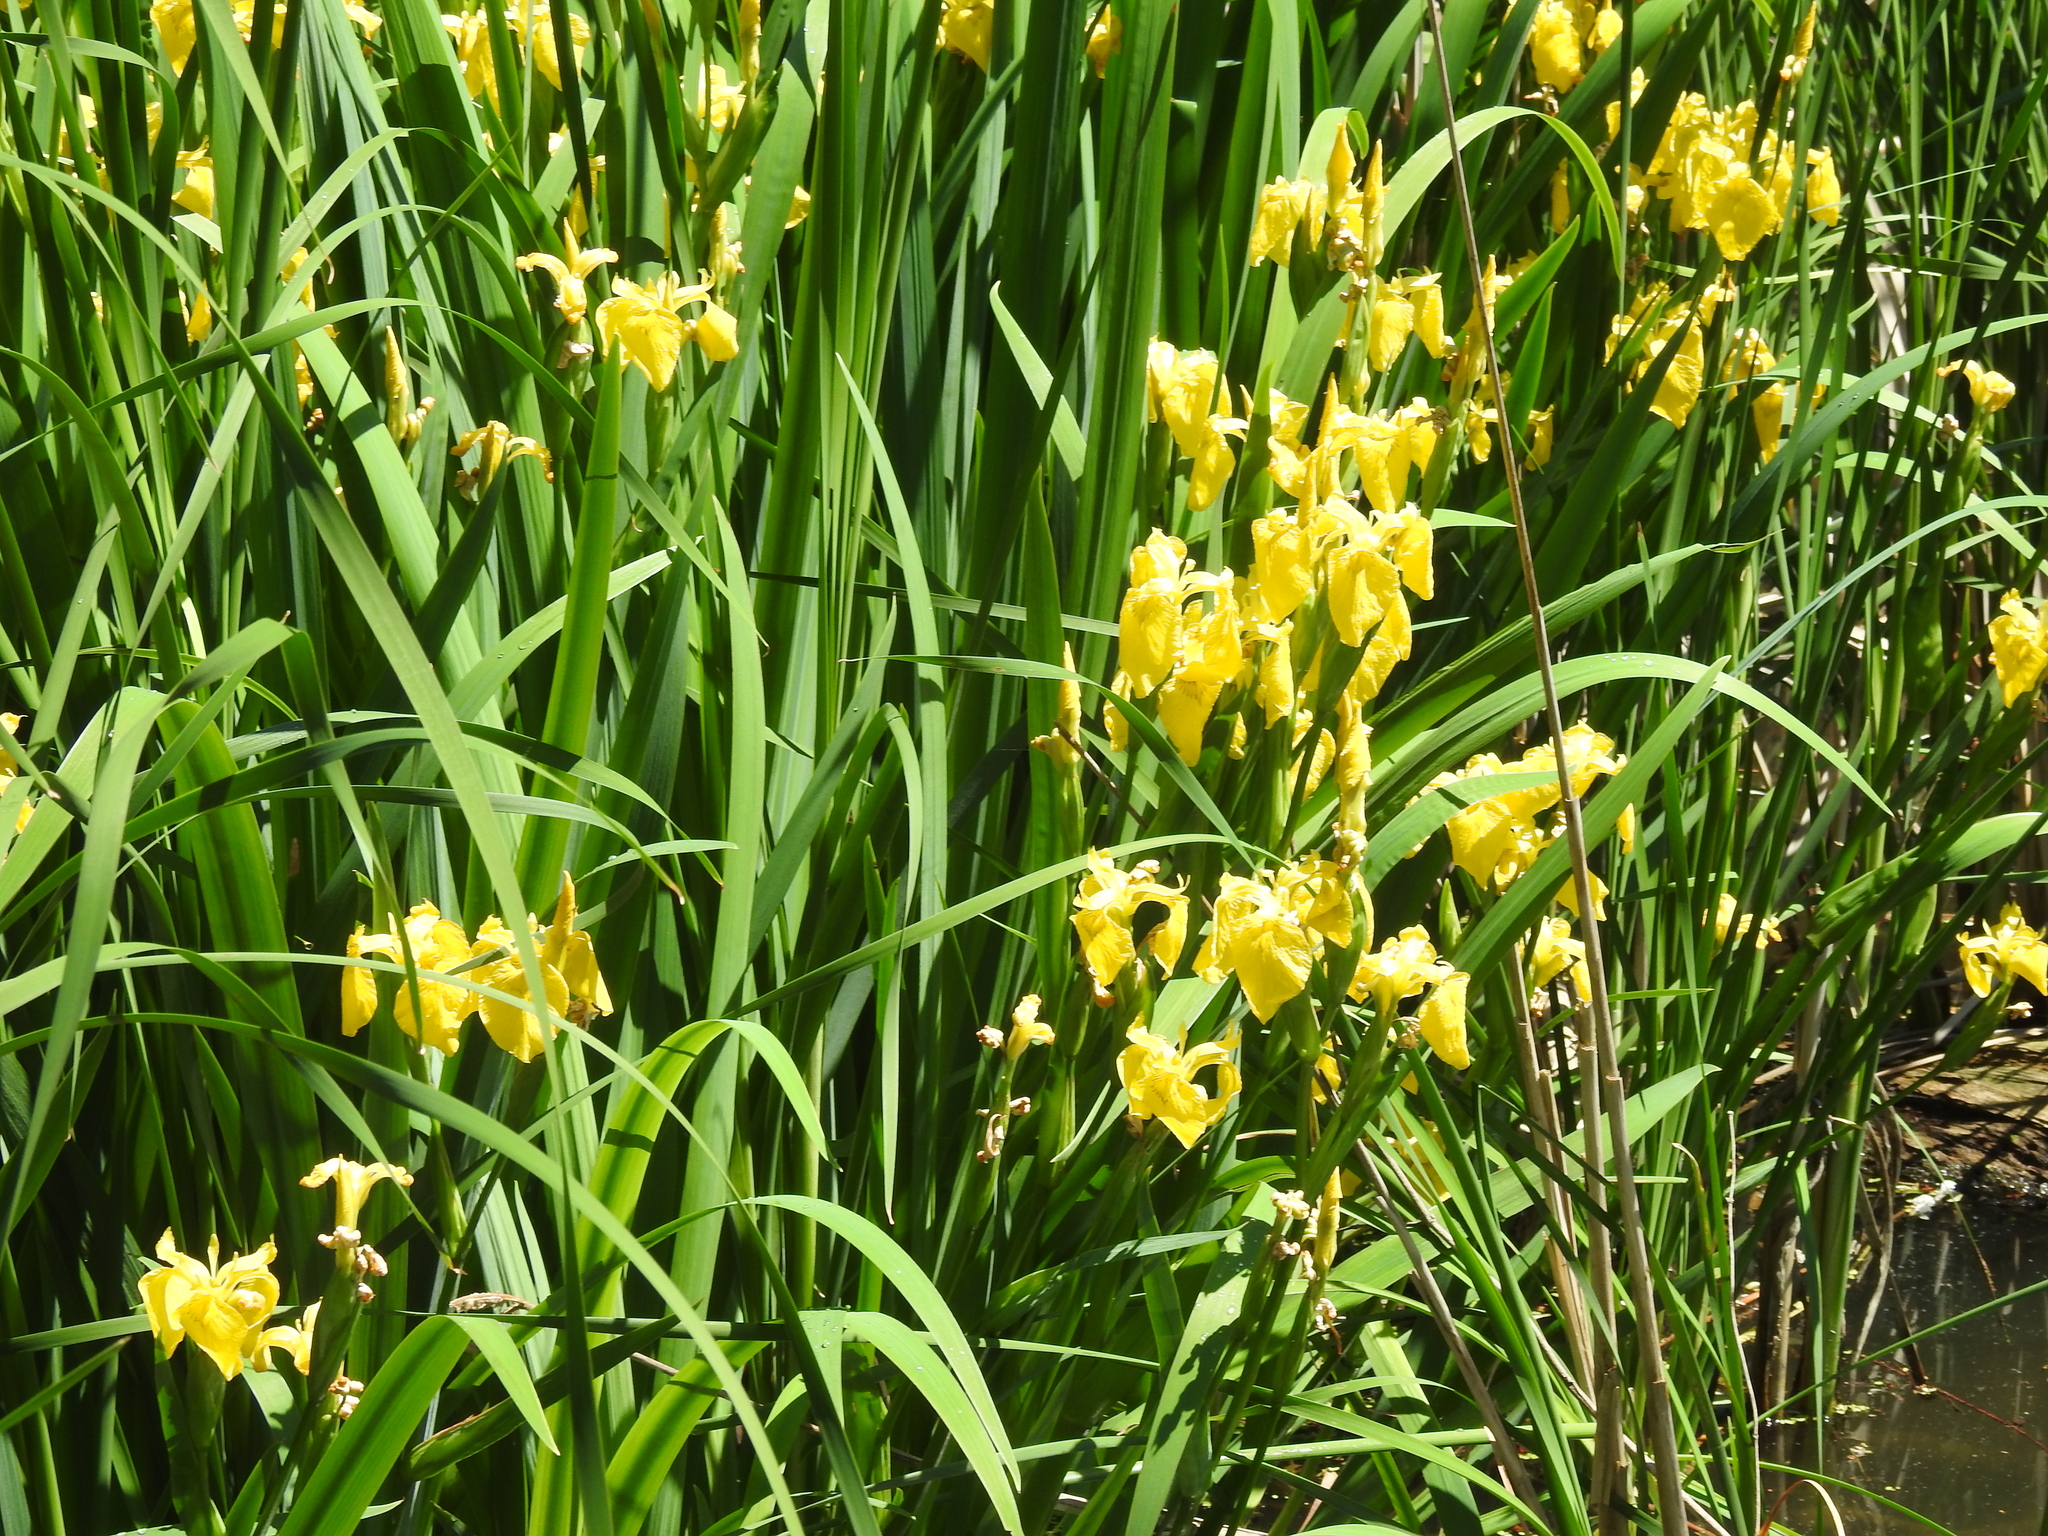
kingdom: Plantae
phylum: Tracheophyta
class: Liliopsida
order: Asparagales
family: Iridaceae
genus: Iris
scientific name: Iris pseudacorus
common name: Yellow flag
